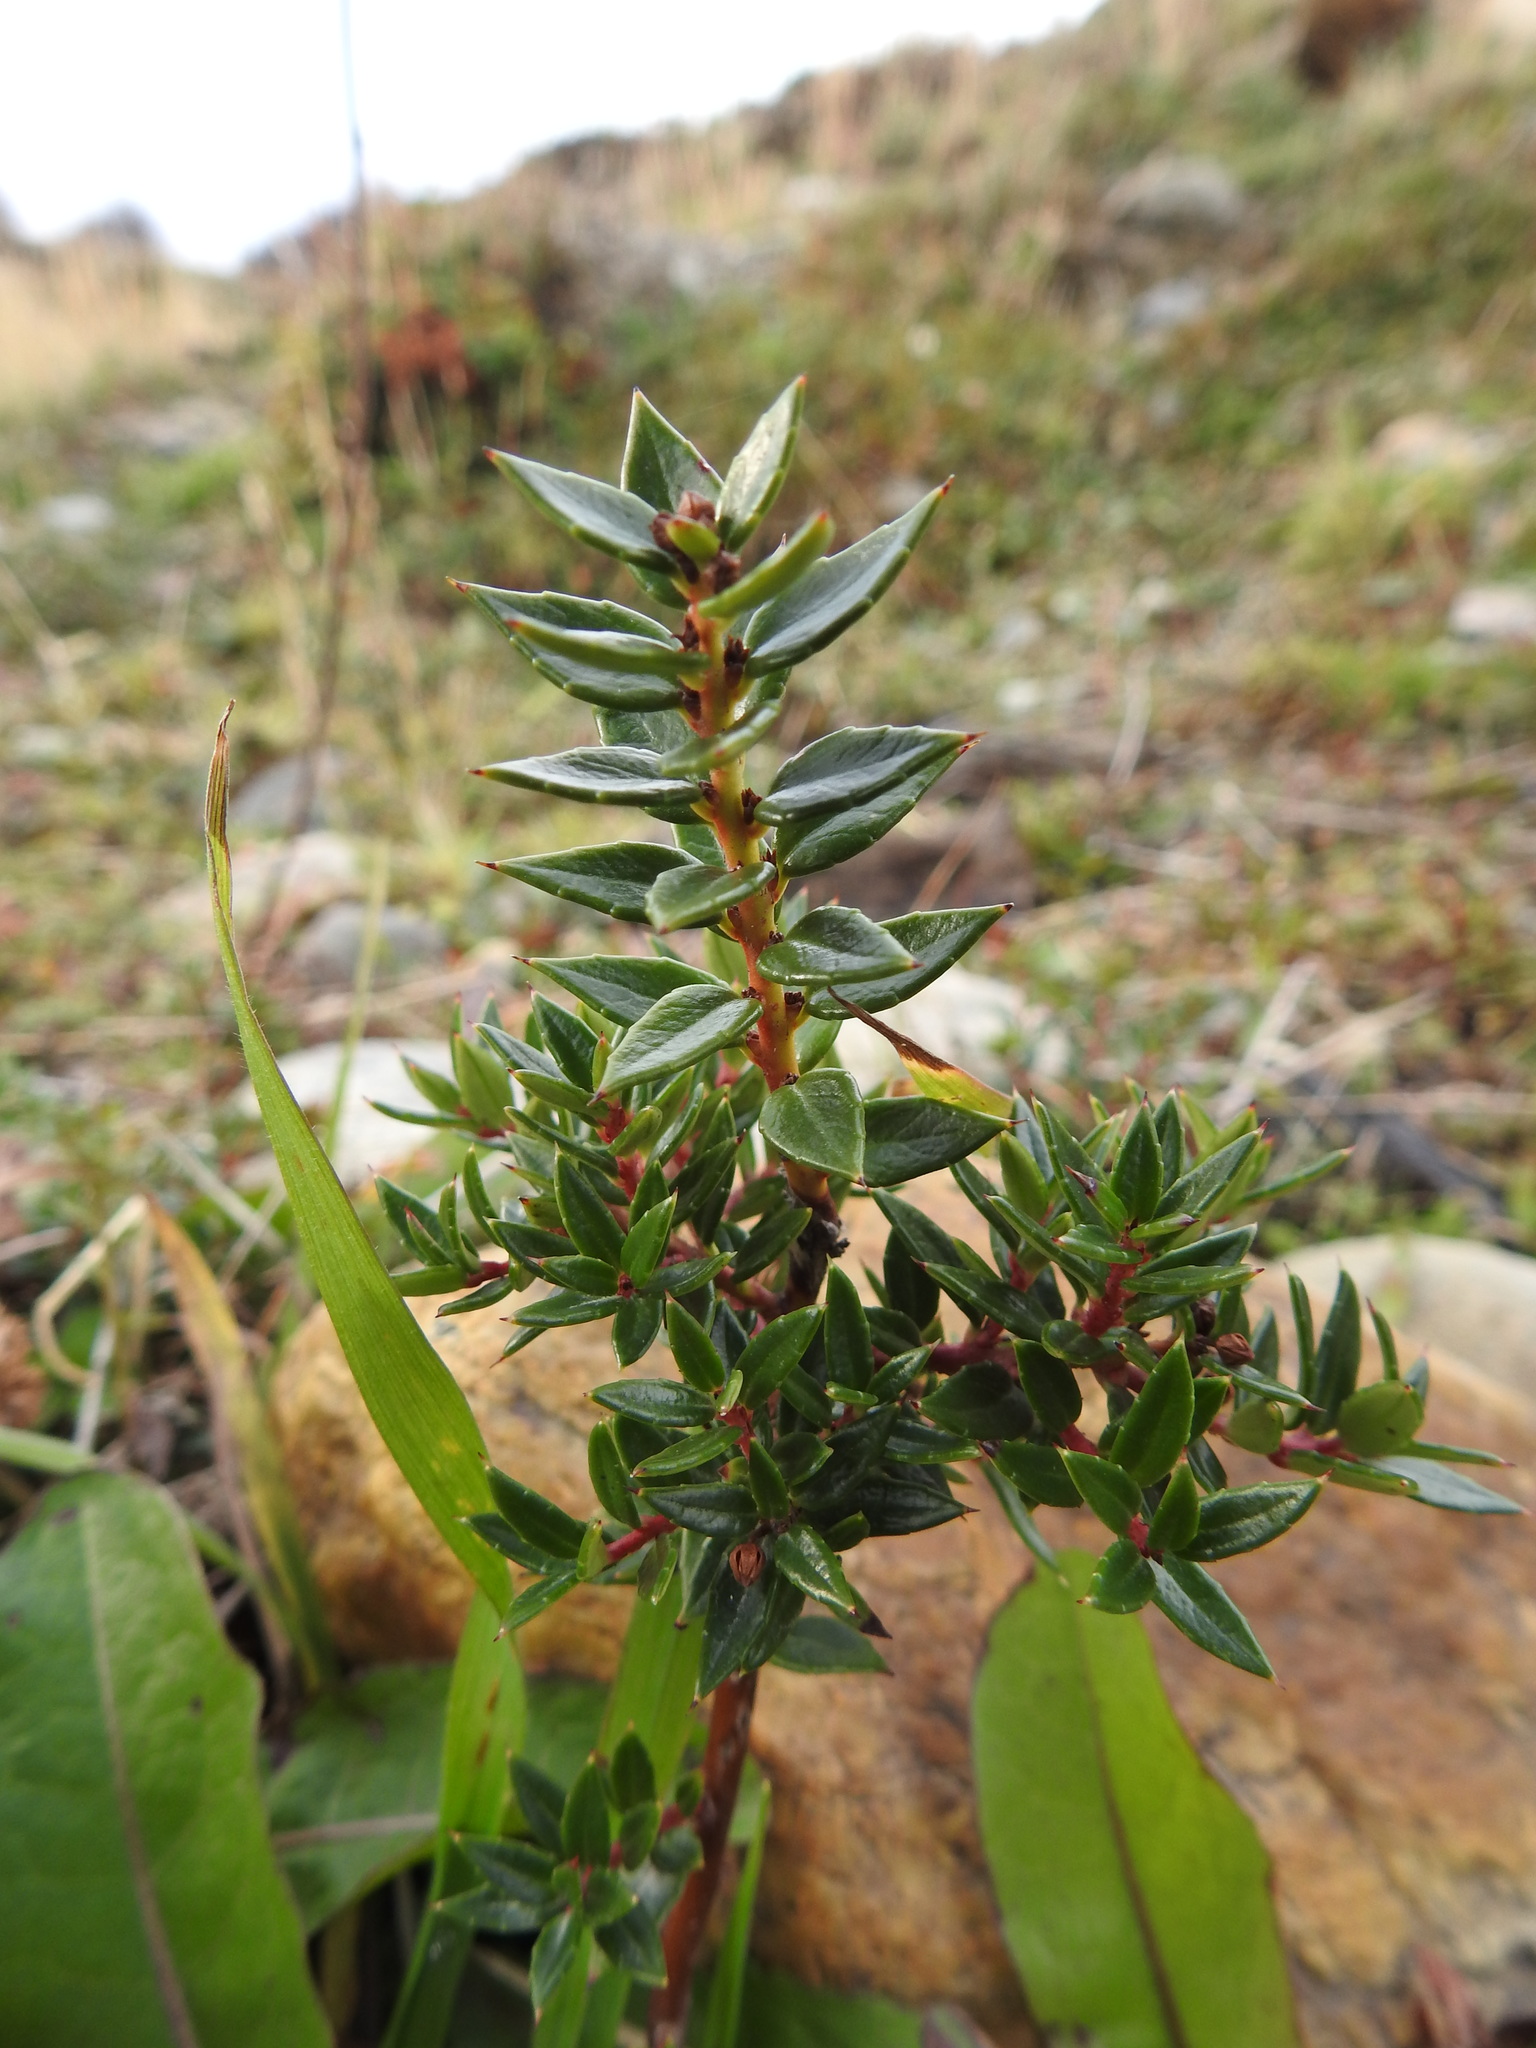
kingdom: Plantae
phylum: Tracheophyta
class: Magnoliopsida
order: Ericales
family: Ericaceae
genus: Gaultheria
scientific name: Gaultheria mucronata
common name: Prickly heath
